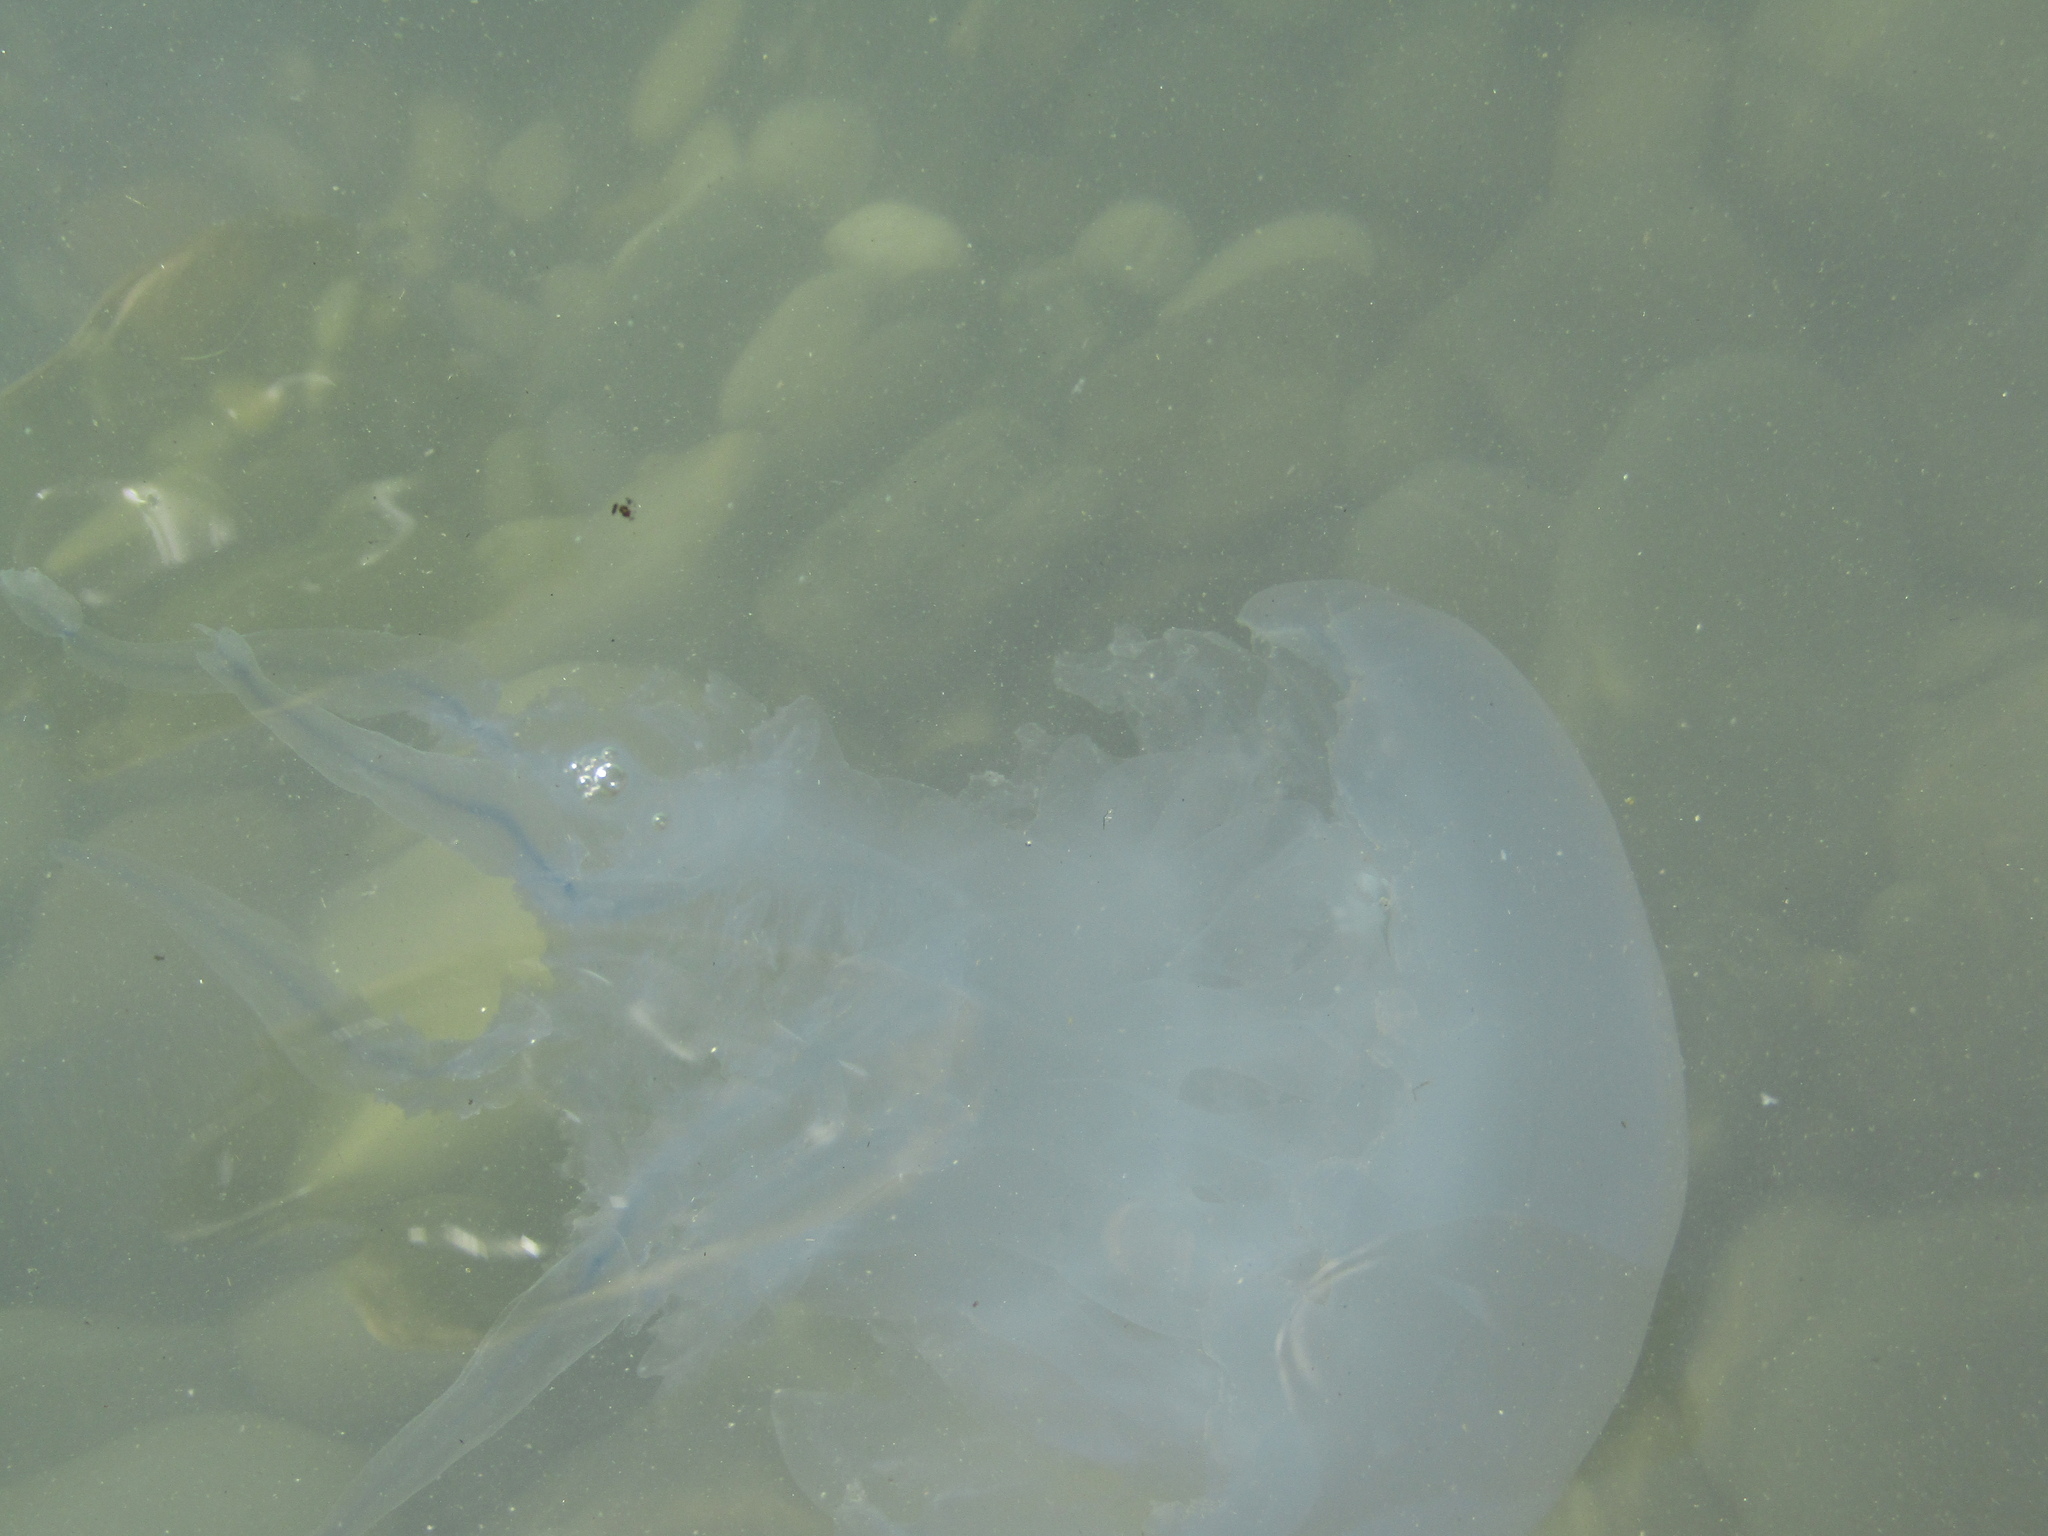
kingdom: Animalia
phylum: Cnidaria
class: Scyphozoa
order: Rhizostomeae
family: Rhizostomatidae
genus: Rhizostoma
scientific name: Rhizostoma pulmo
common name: Barrel jellyfish
